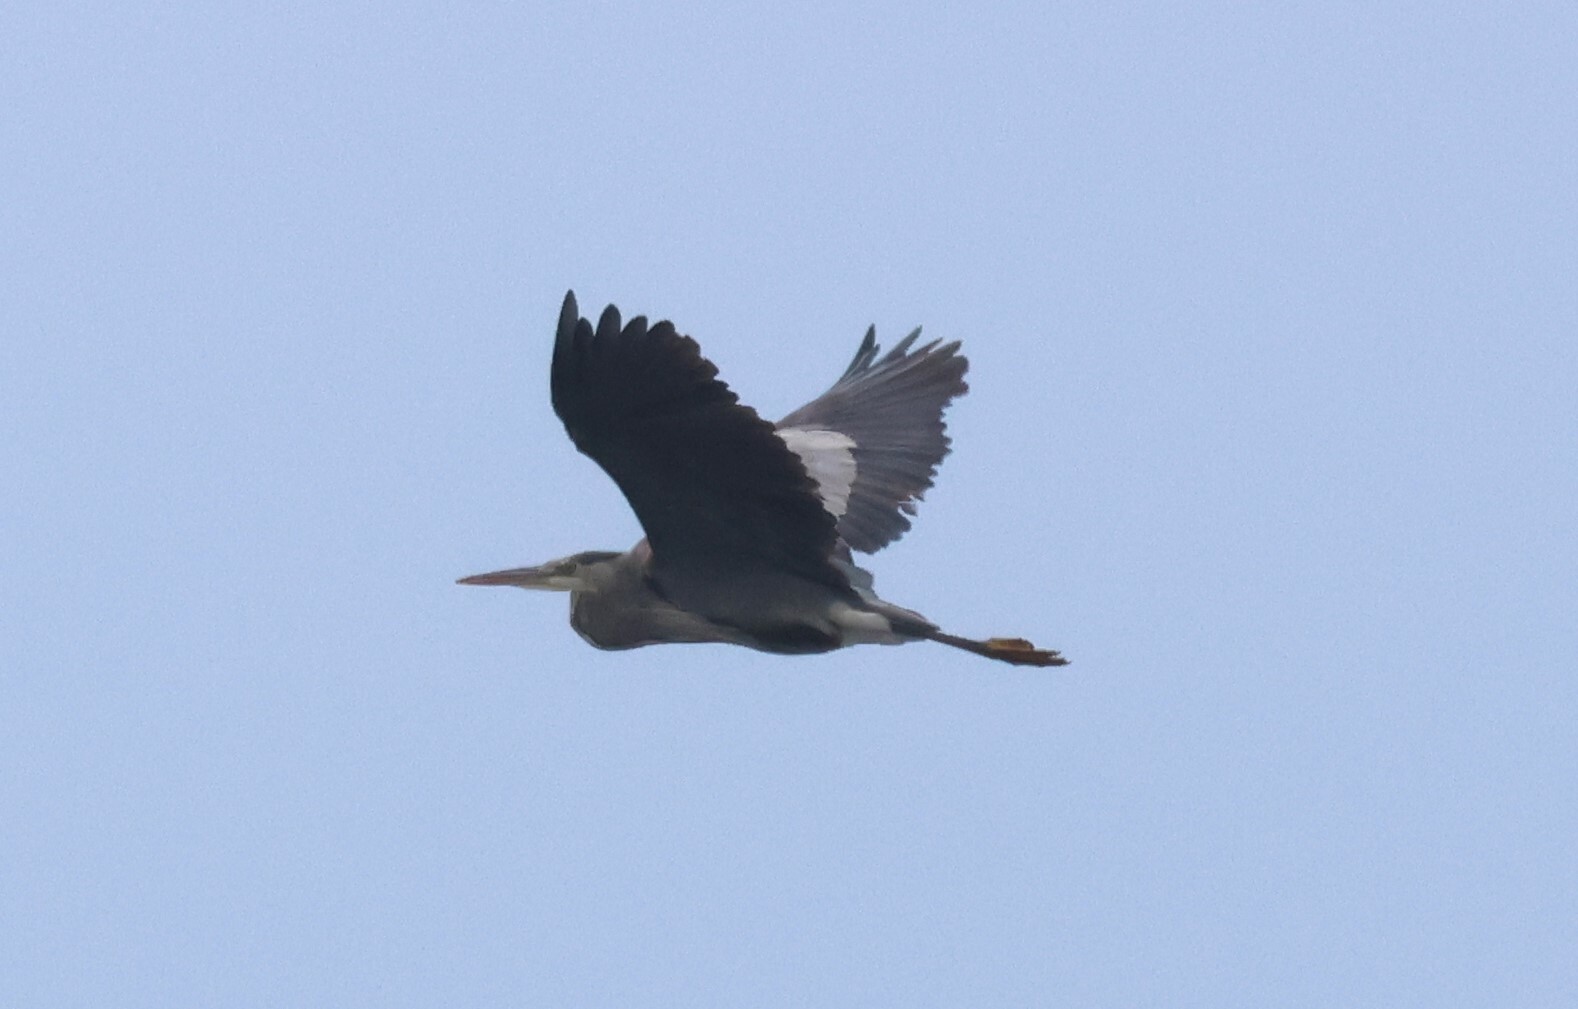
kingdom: Animalia
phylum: Chordata
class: Aves
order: Pelecaniformes
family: Ardeidae
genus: Ardea
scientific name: Ardea herodias
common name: Great blue heron
